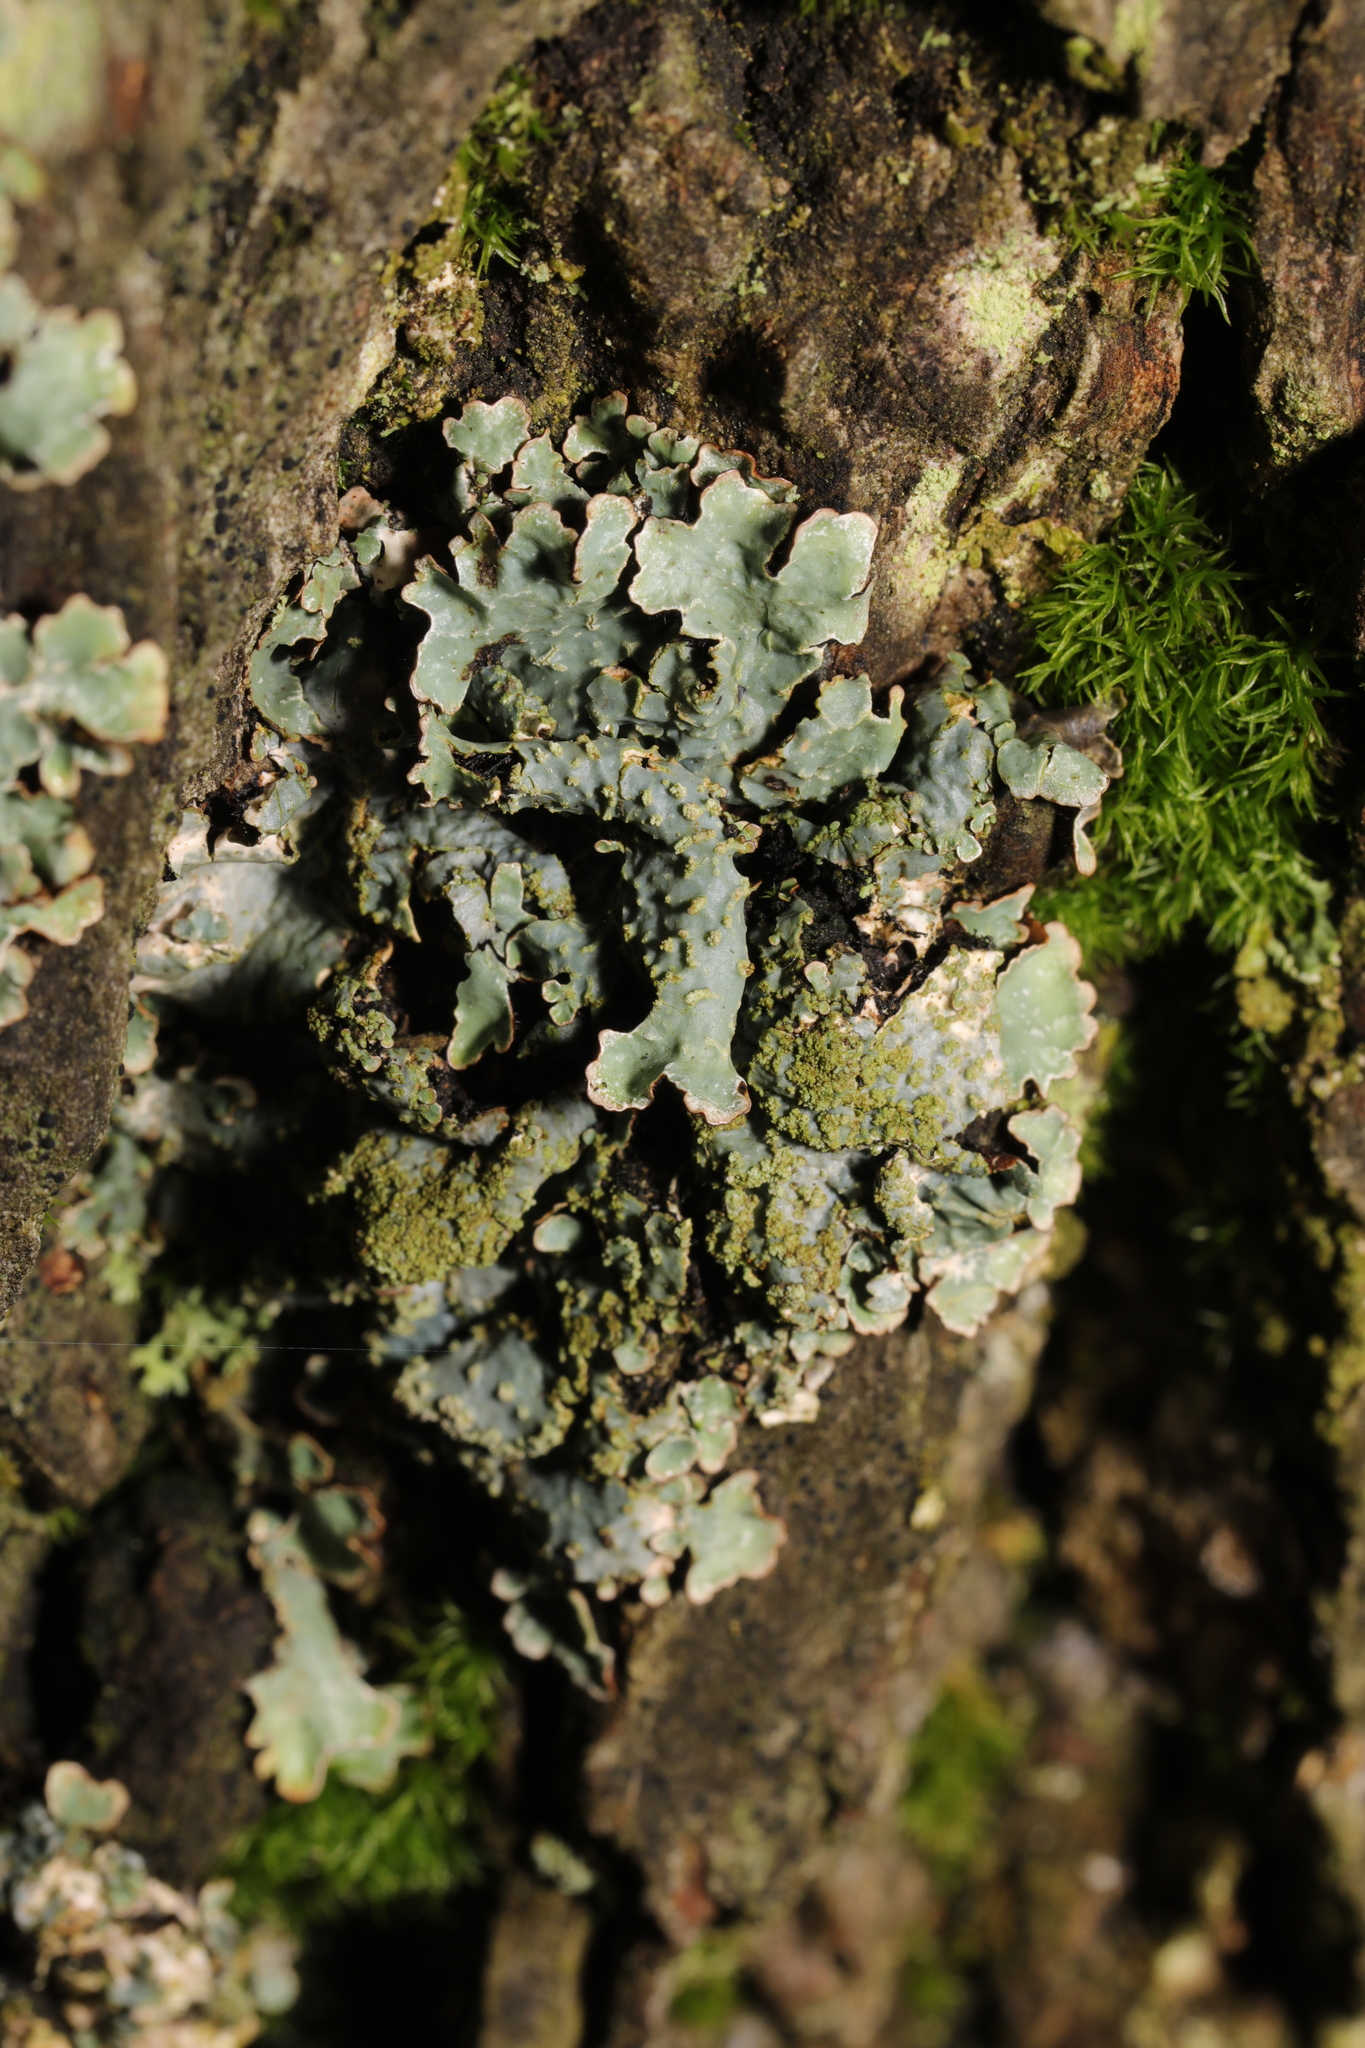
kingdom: Fungi
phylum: Ascomycota
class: Lecanoromycetes
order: Lecanorales
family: Parmeliaceae
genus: Parmelia
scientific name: Parmelia sulcata
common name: Netted shield lichen
